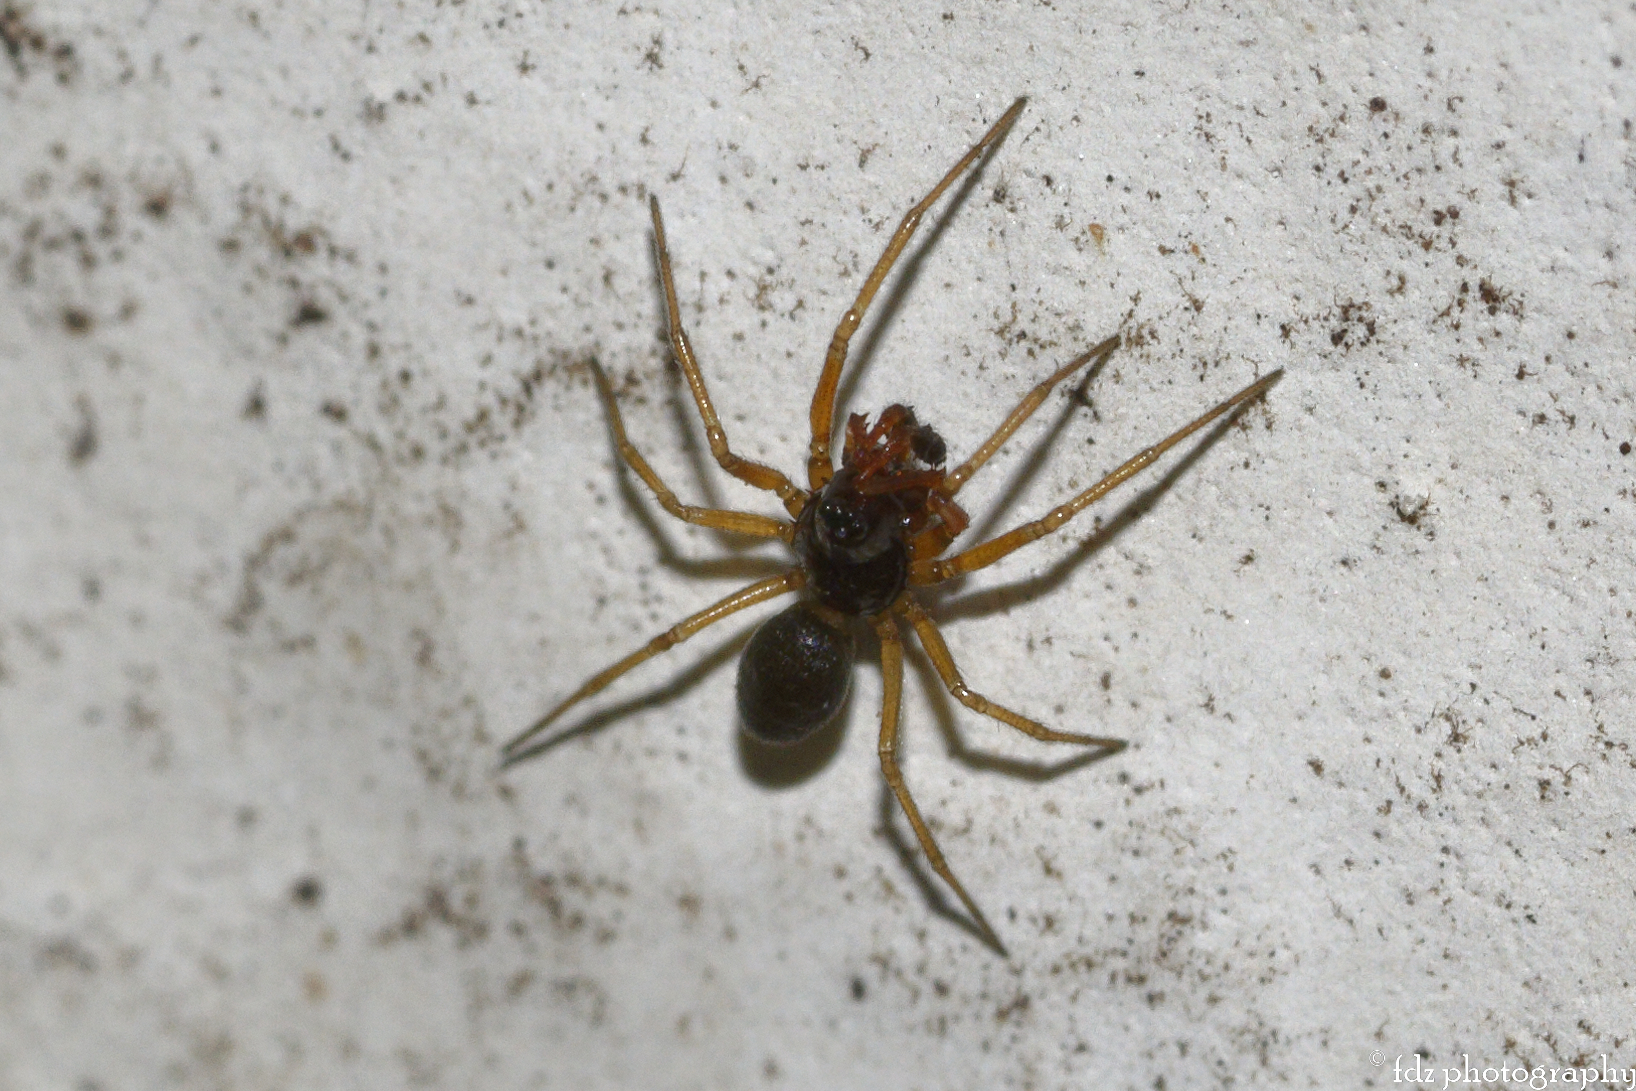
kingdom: Animalia
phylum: Arthropoda
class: Arachnida
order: Araneae
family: Linyphiidae
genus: Erigone
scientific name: Erigone dentosa
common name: Sheet-web spiders
